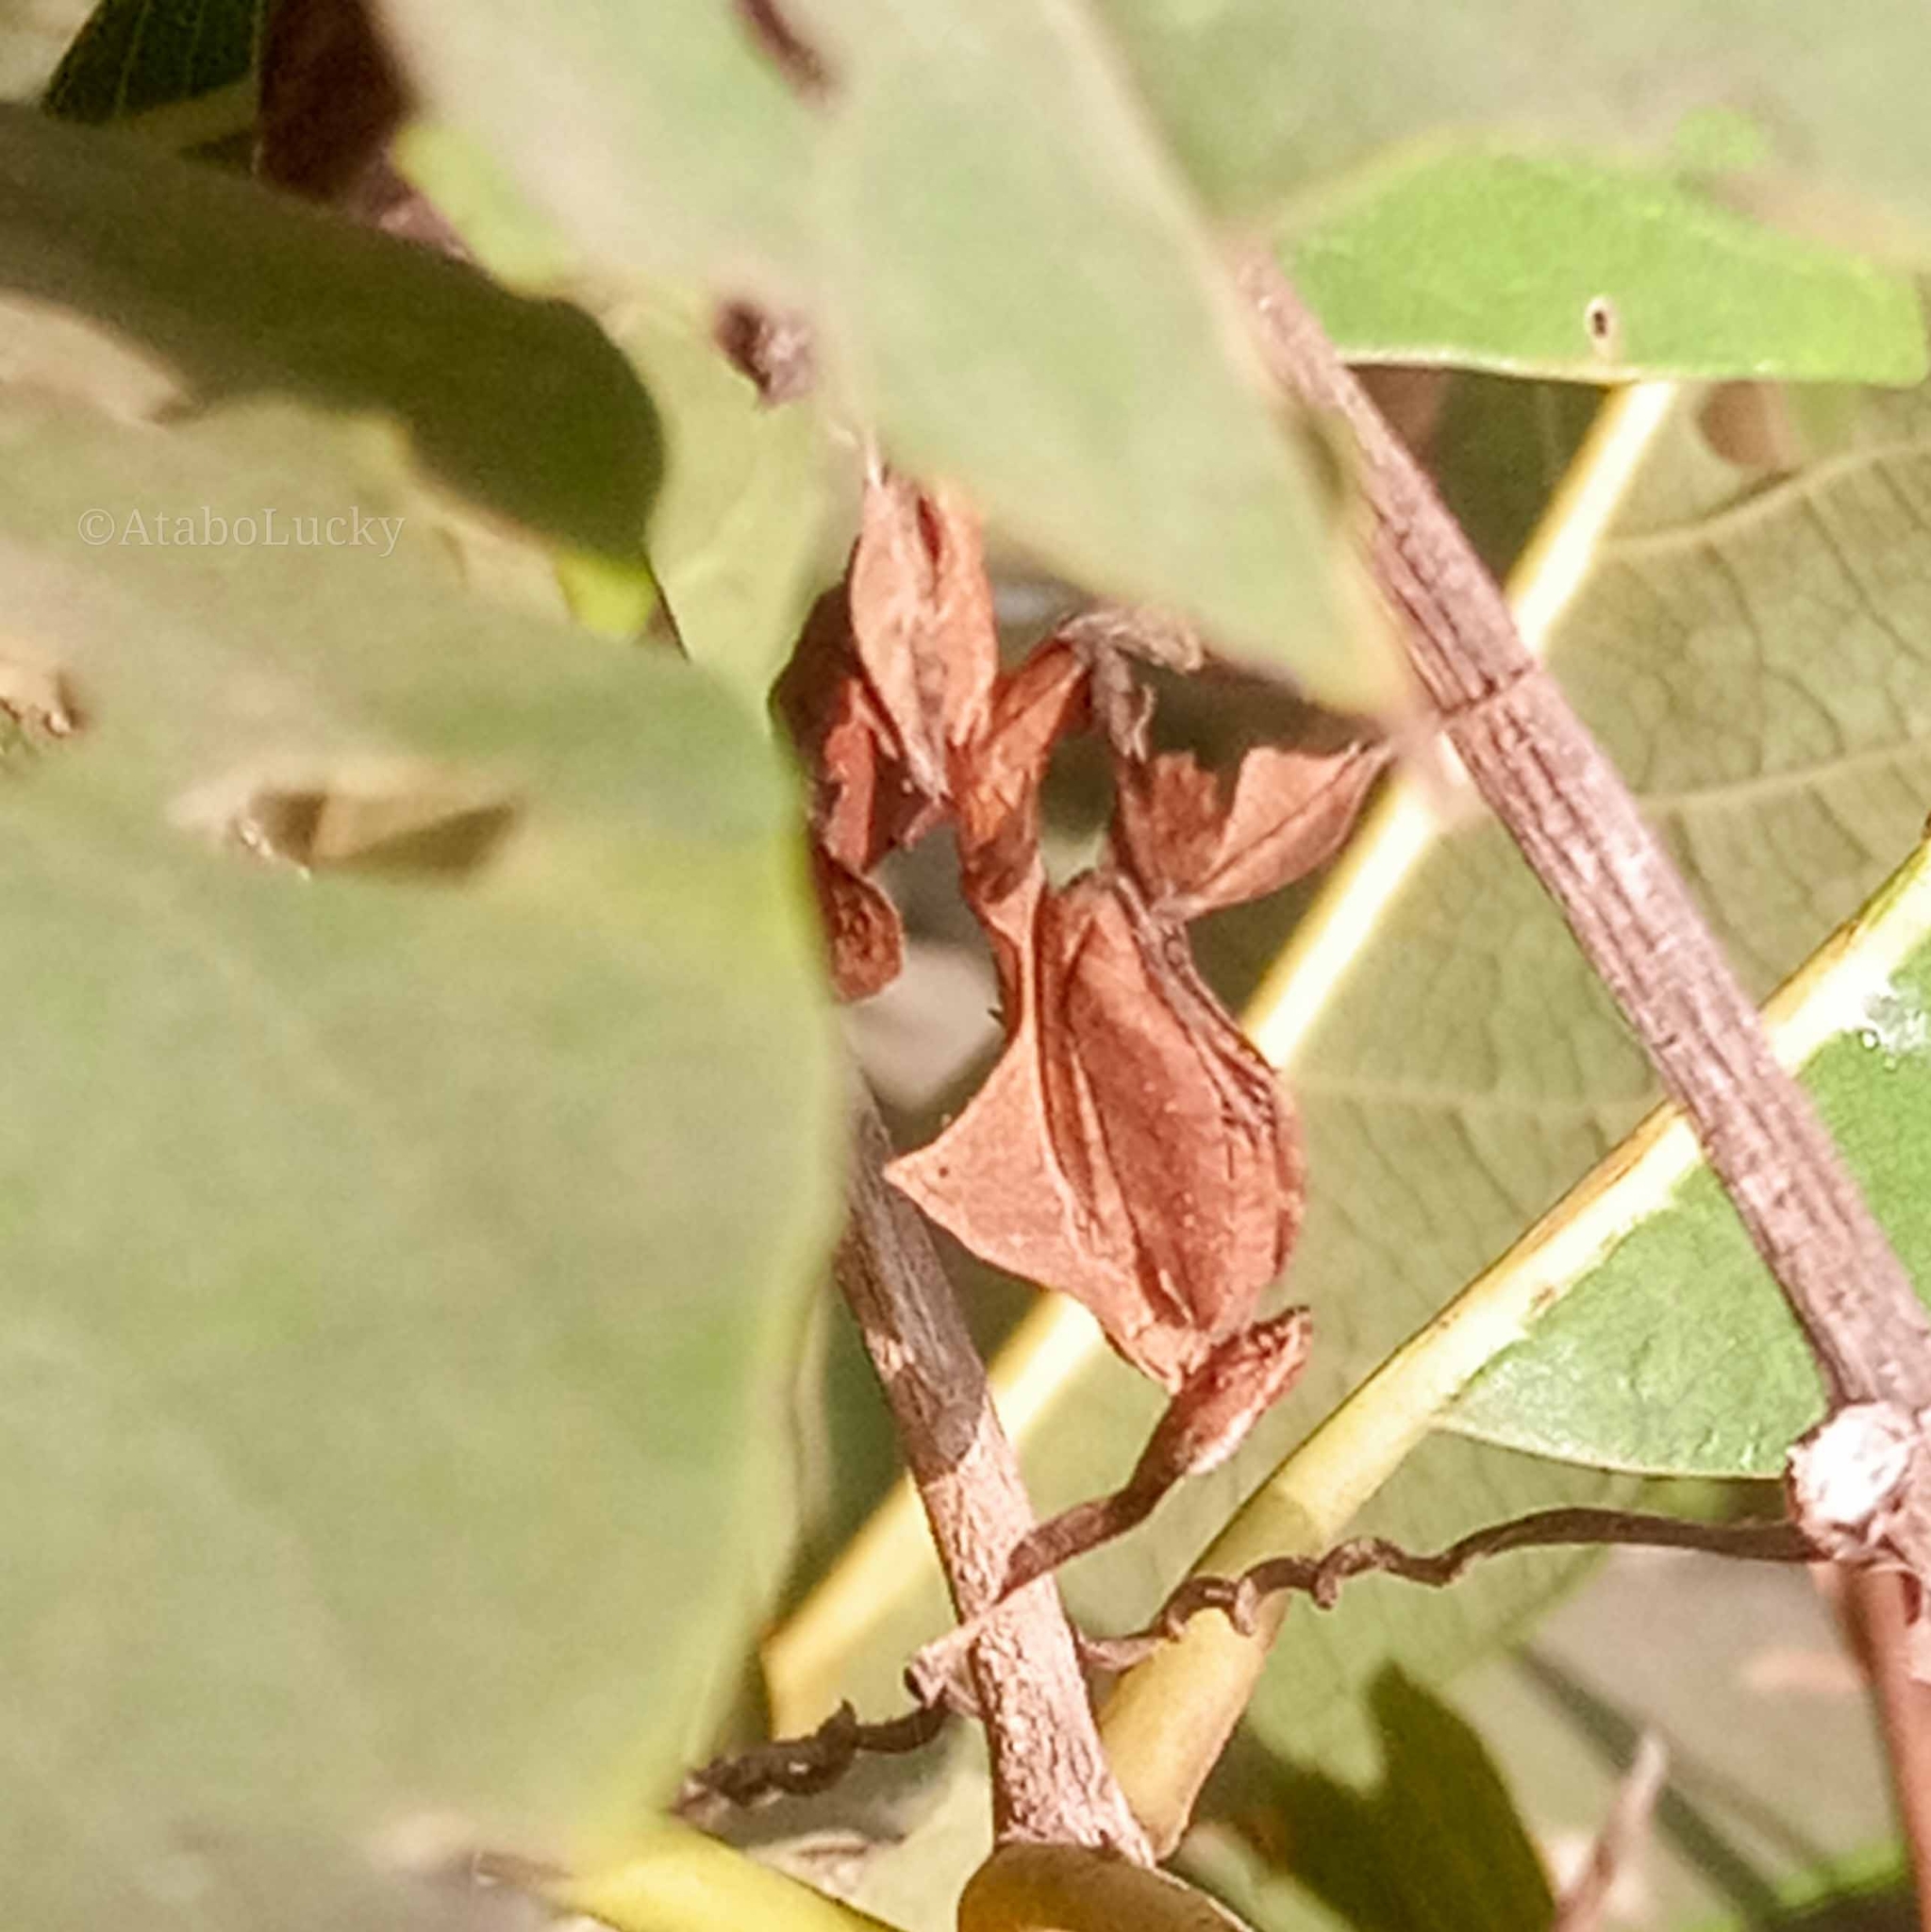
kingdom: Animalia
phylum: Arthropoda
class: Insecta
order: Mantodea
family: Hymenopodidae
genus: Phyllocrania
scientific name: Phyllocrania paradoxa
